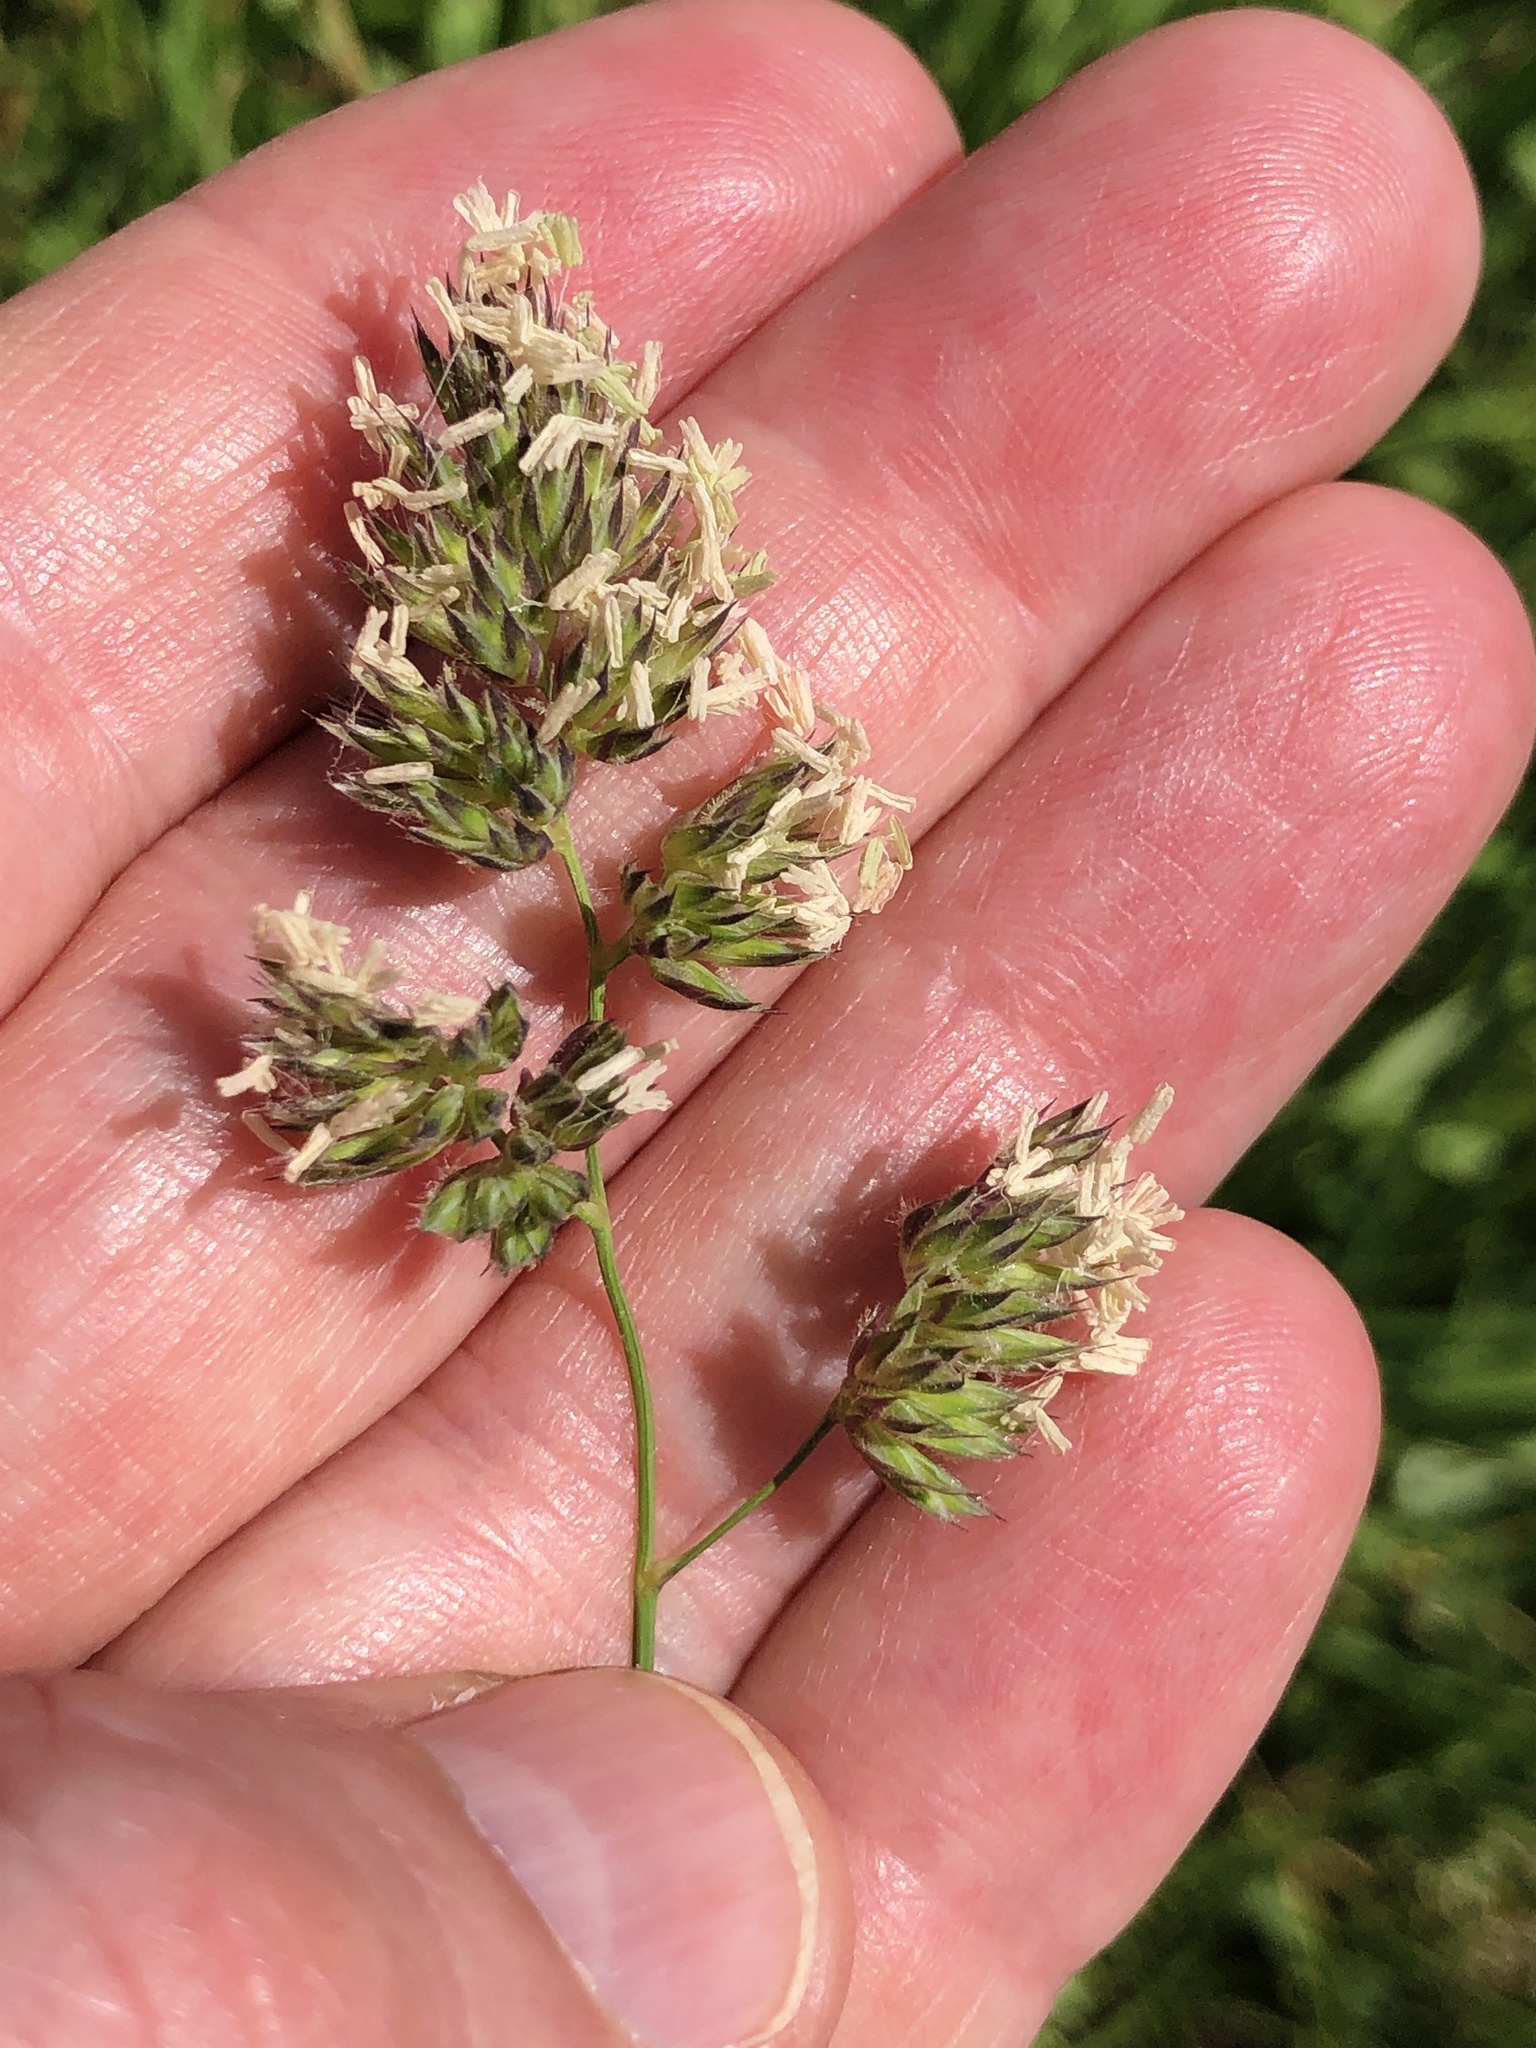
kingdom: Plantae
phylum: Tracheophyta
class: Liliopsida
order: Poales
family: Poaceae
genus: Dactylis
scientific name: Dactylis glomerata
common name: Orchardgrass
